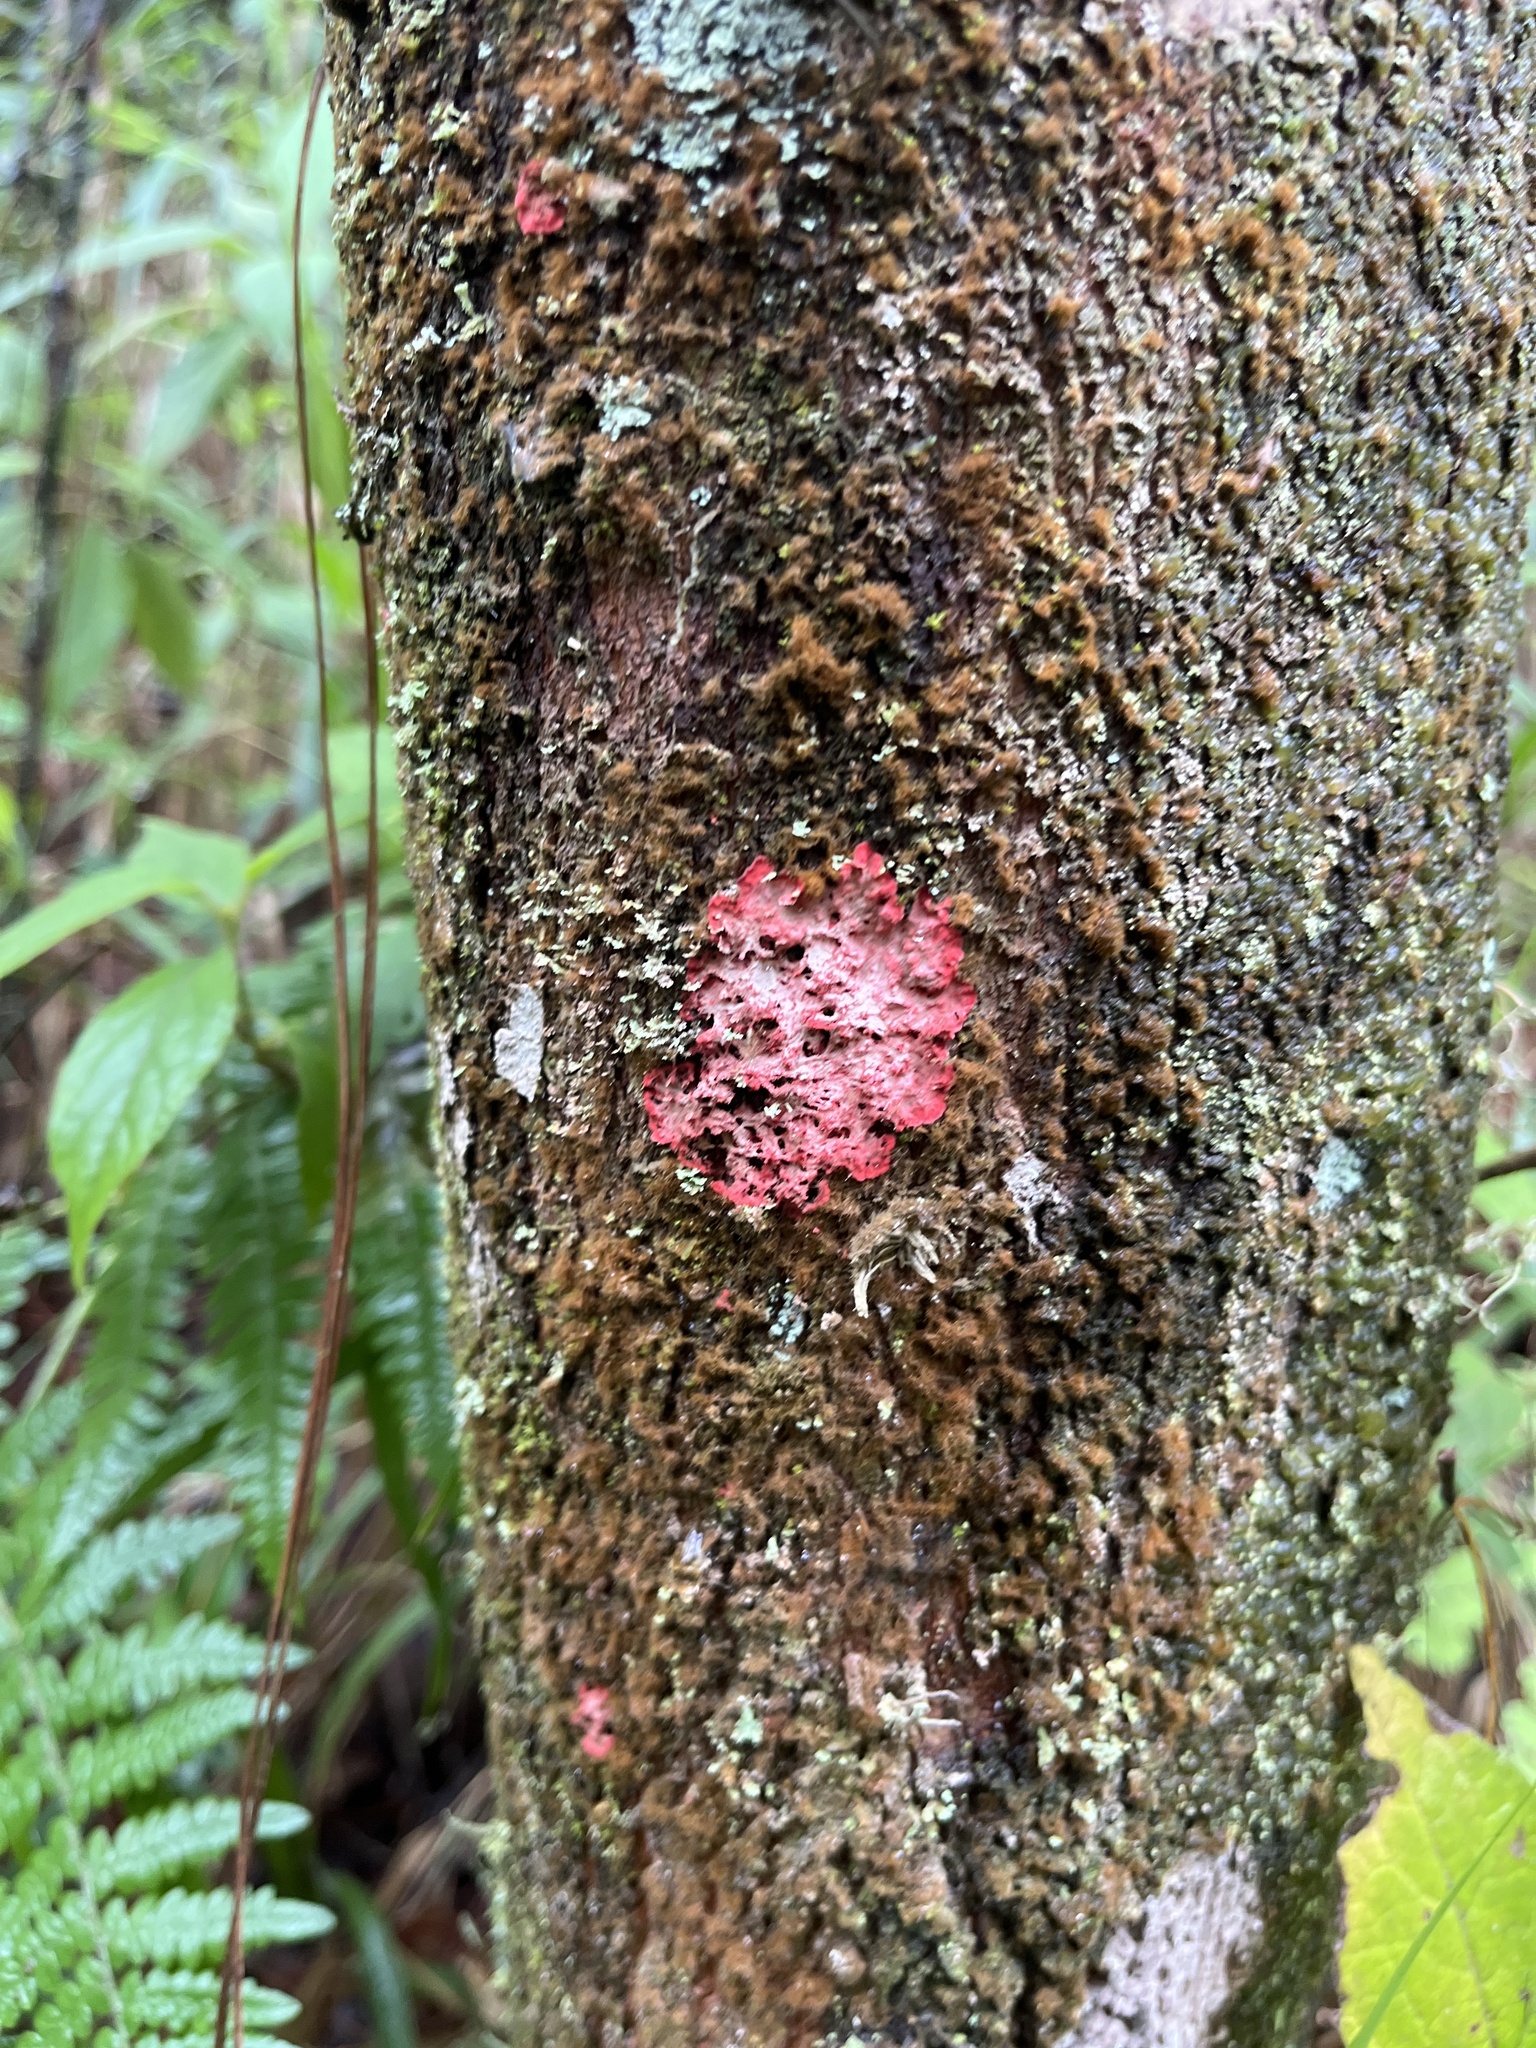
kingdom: Fungi
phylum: Ascomycota
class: Arthoniomycetes
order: Arthoniales
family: Arthoniaceae
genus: Herpothallon
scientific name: Herpothallon rubrocinctum
